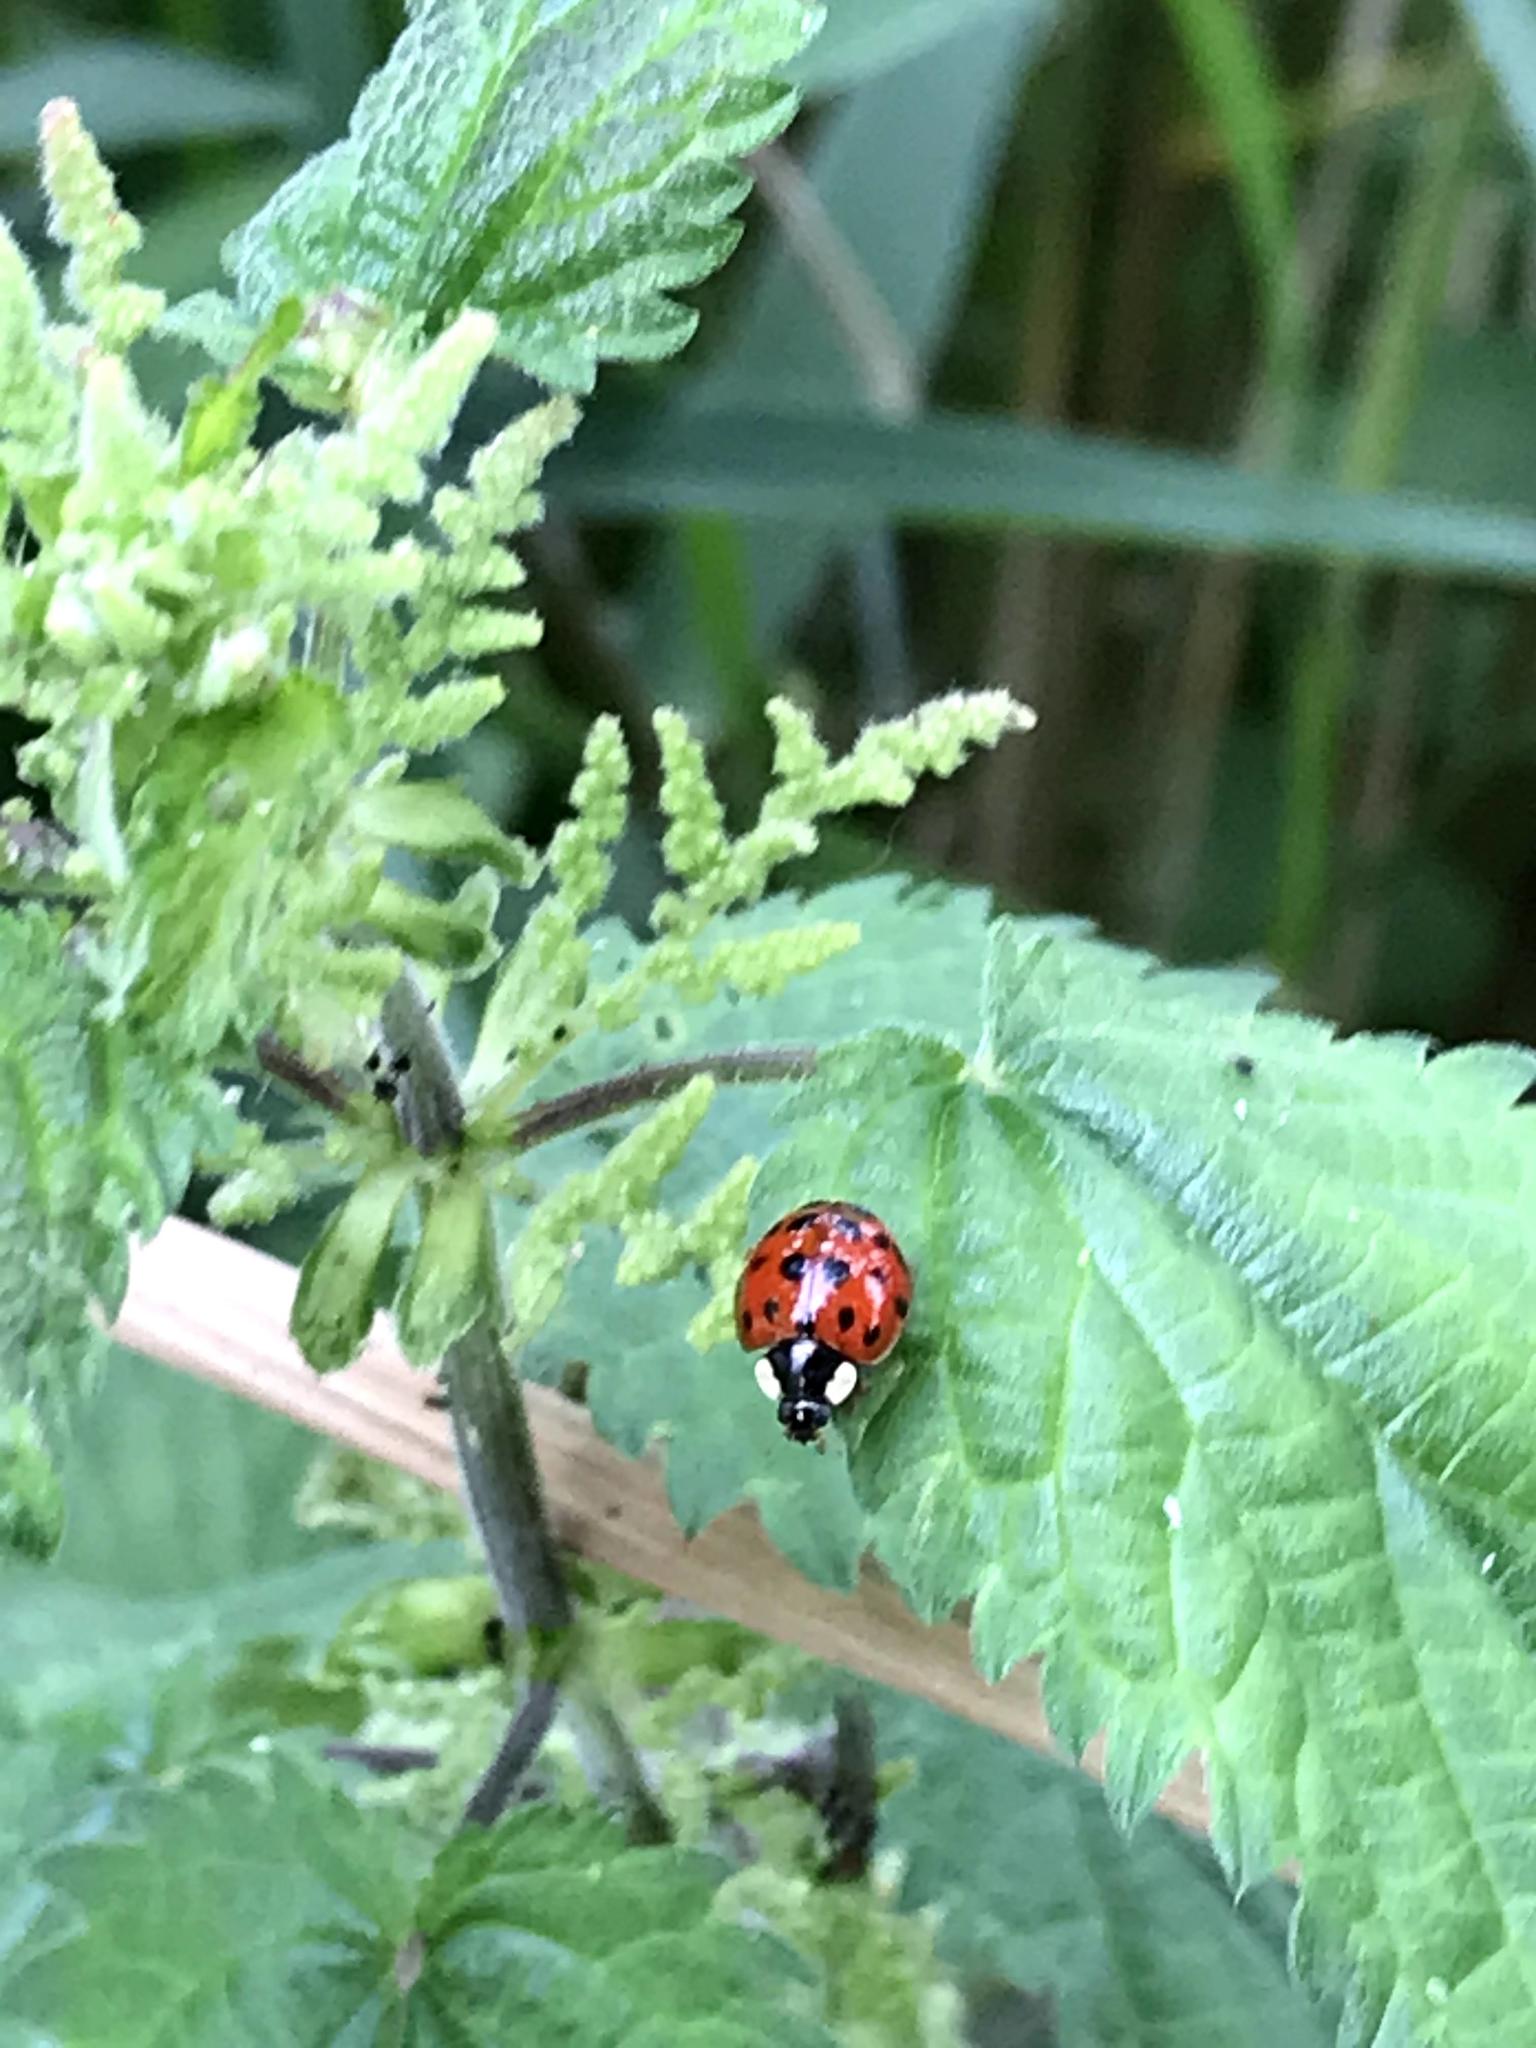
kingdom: Animalia
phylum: Arthropoda
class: Insecta
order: Coleoptera
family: Coccinellidae
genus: Harmonia
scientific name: Harmonia axyridis
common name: Harlequin ladybird
